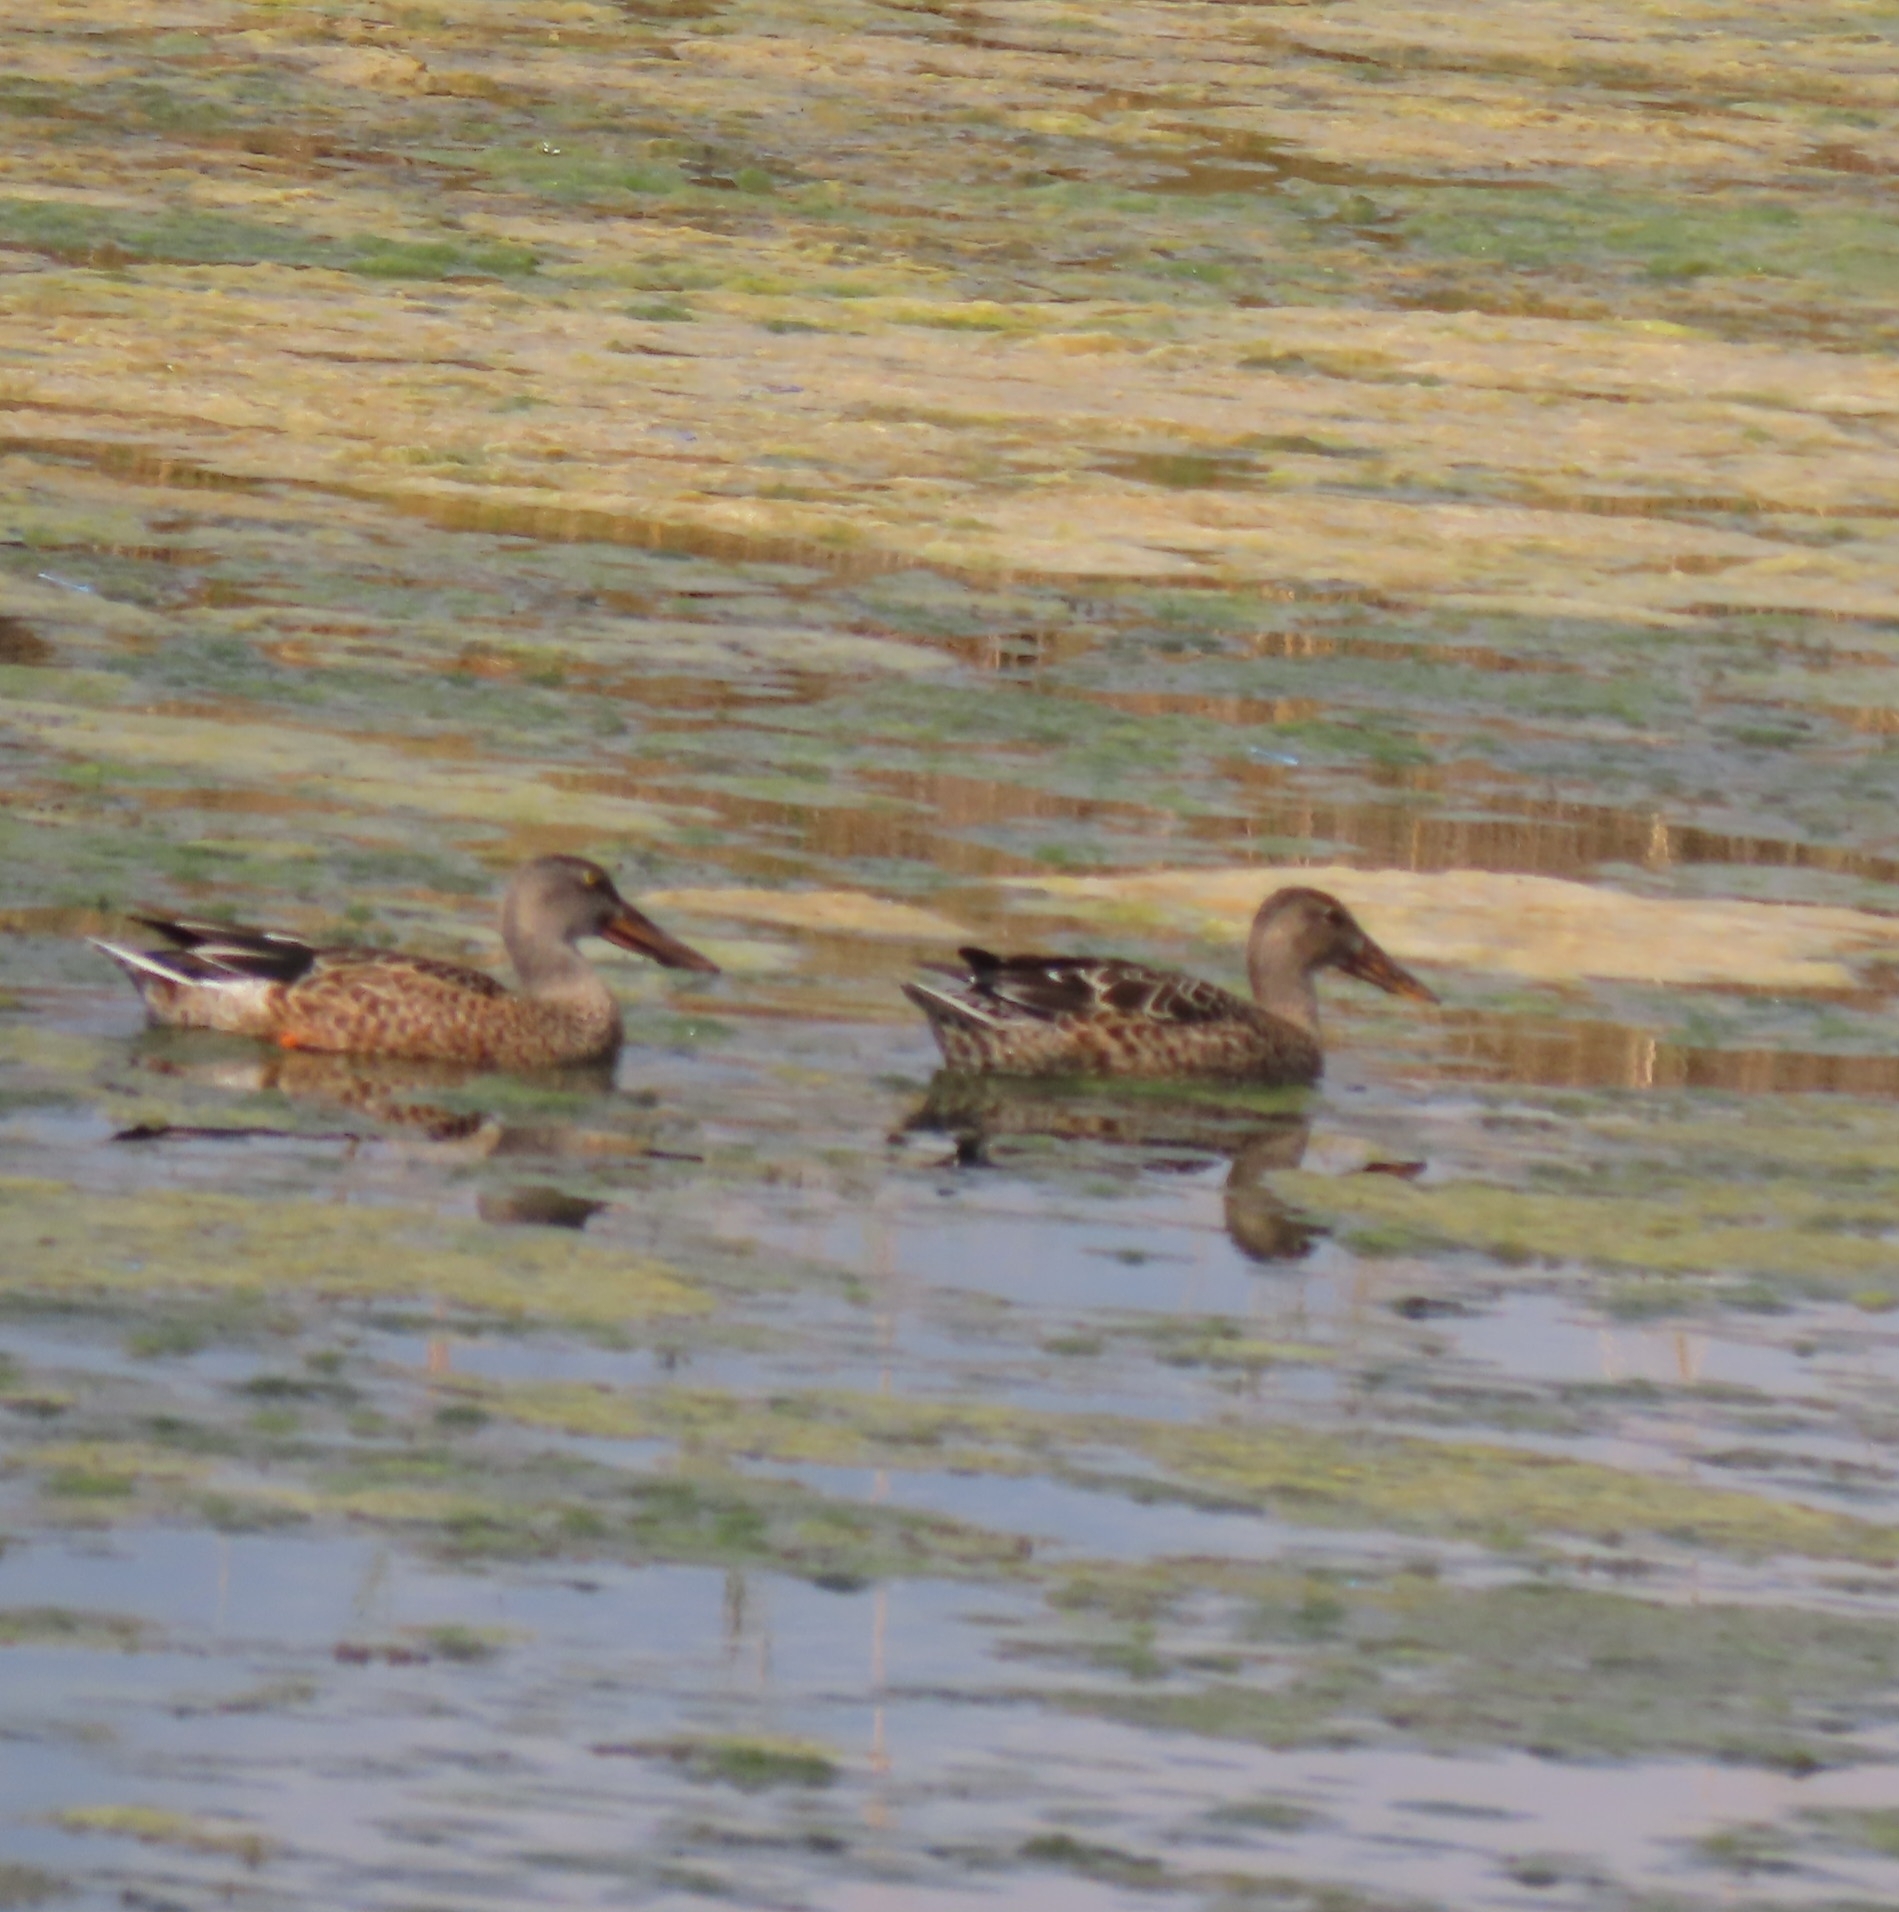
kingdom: Animalia
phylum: Chordata
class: Aves
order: Anseriformes
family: Anatidae
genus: Spatula
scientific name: Spatula clypeata
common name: Northern shoveler
